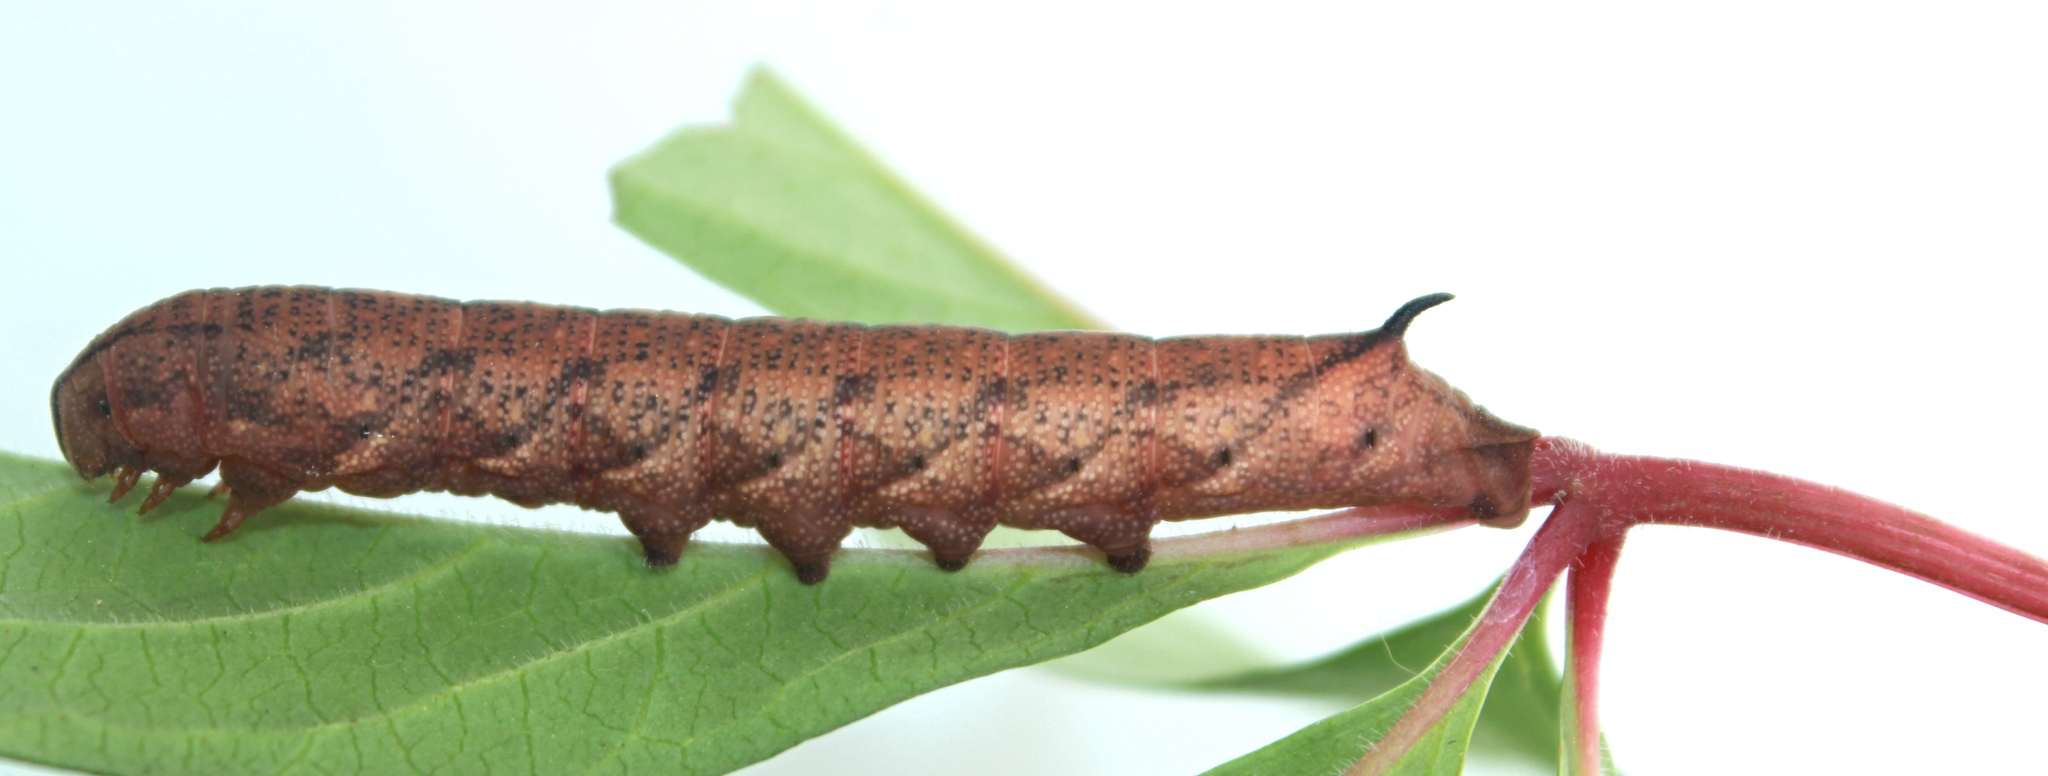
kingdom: Animalia
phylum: Arthropoda
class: Insecta
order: Lepidoptera
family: Sphingidae
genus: Amphion
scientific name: Amphion floridensis
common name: Nessus sphinx
